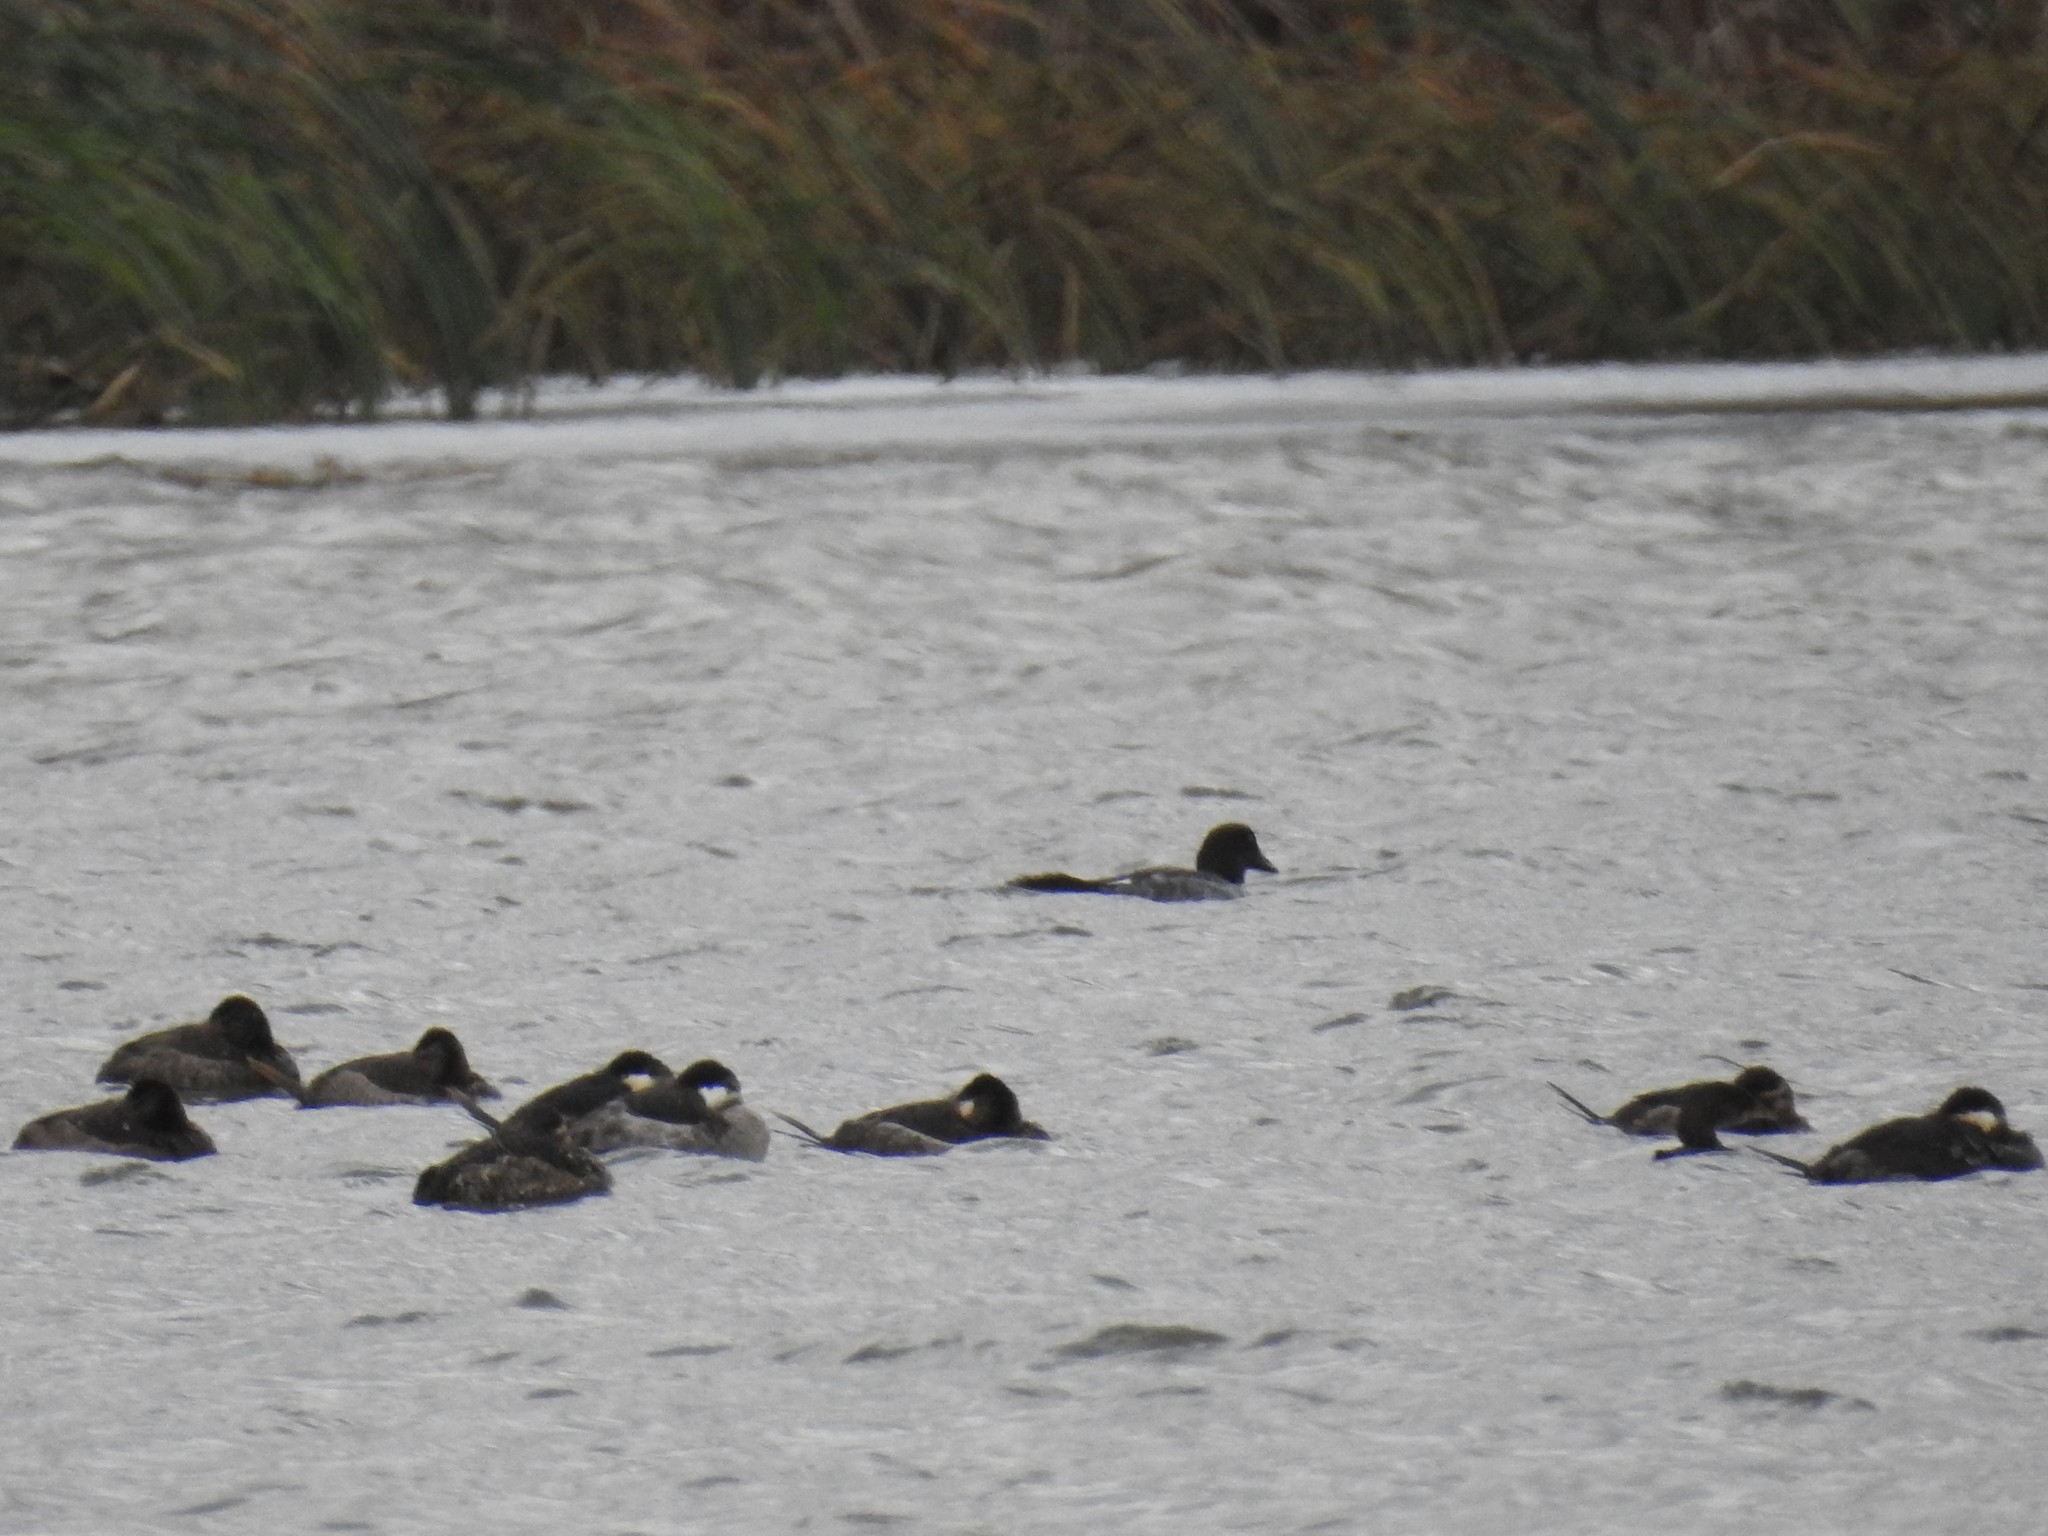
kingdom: Animalia
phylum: Chordata
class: Aves
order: Anseriformes
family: Anatidae
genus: Bucephala
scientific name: Bucephala clangula
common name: Common goldeneye
